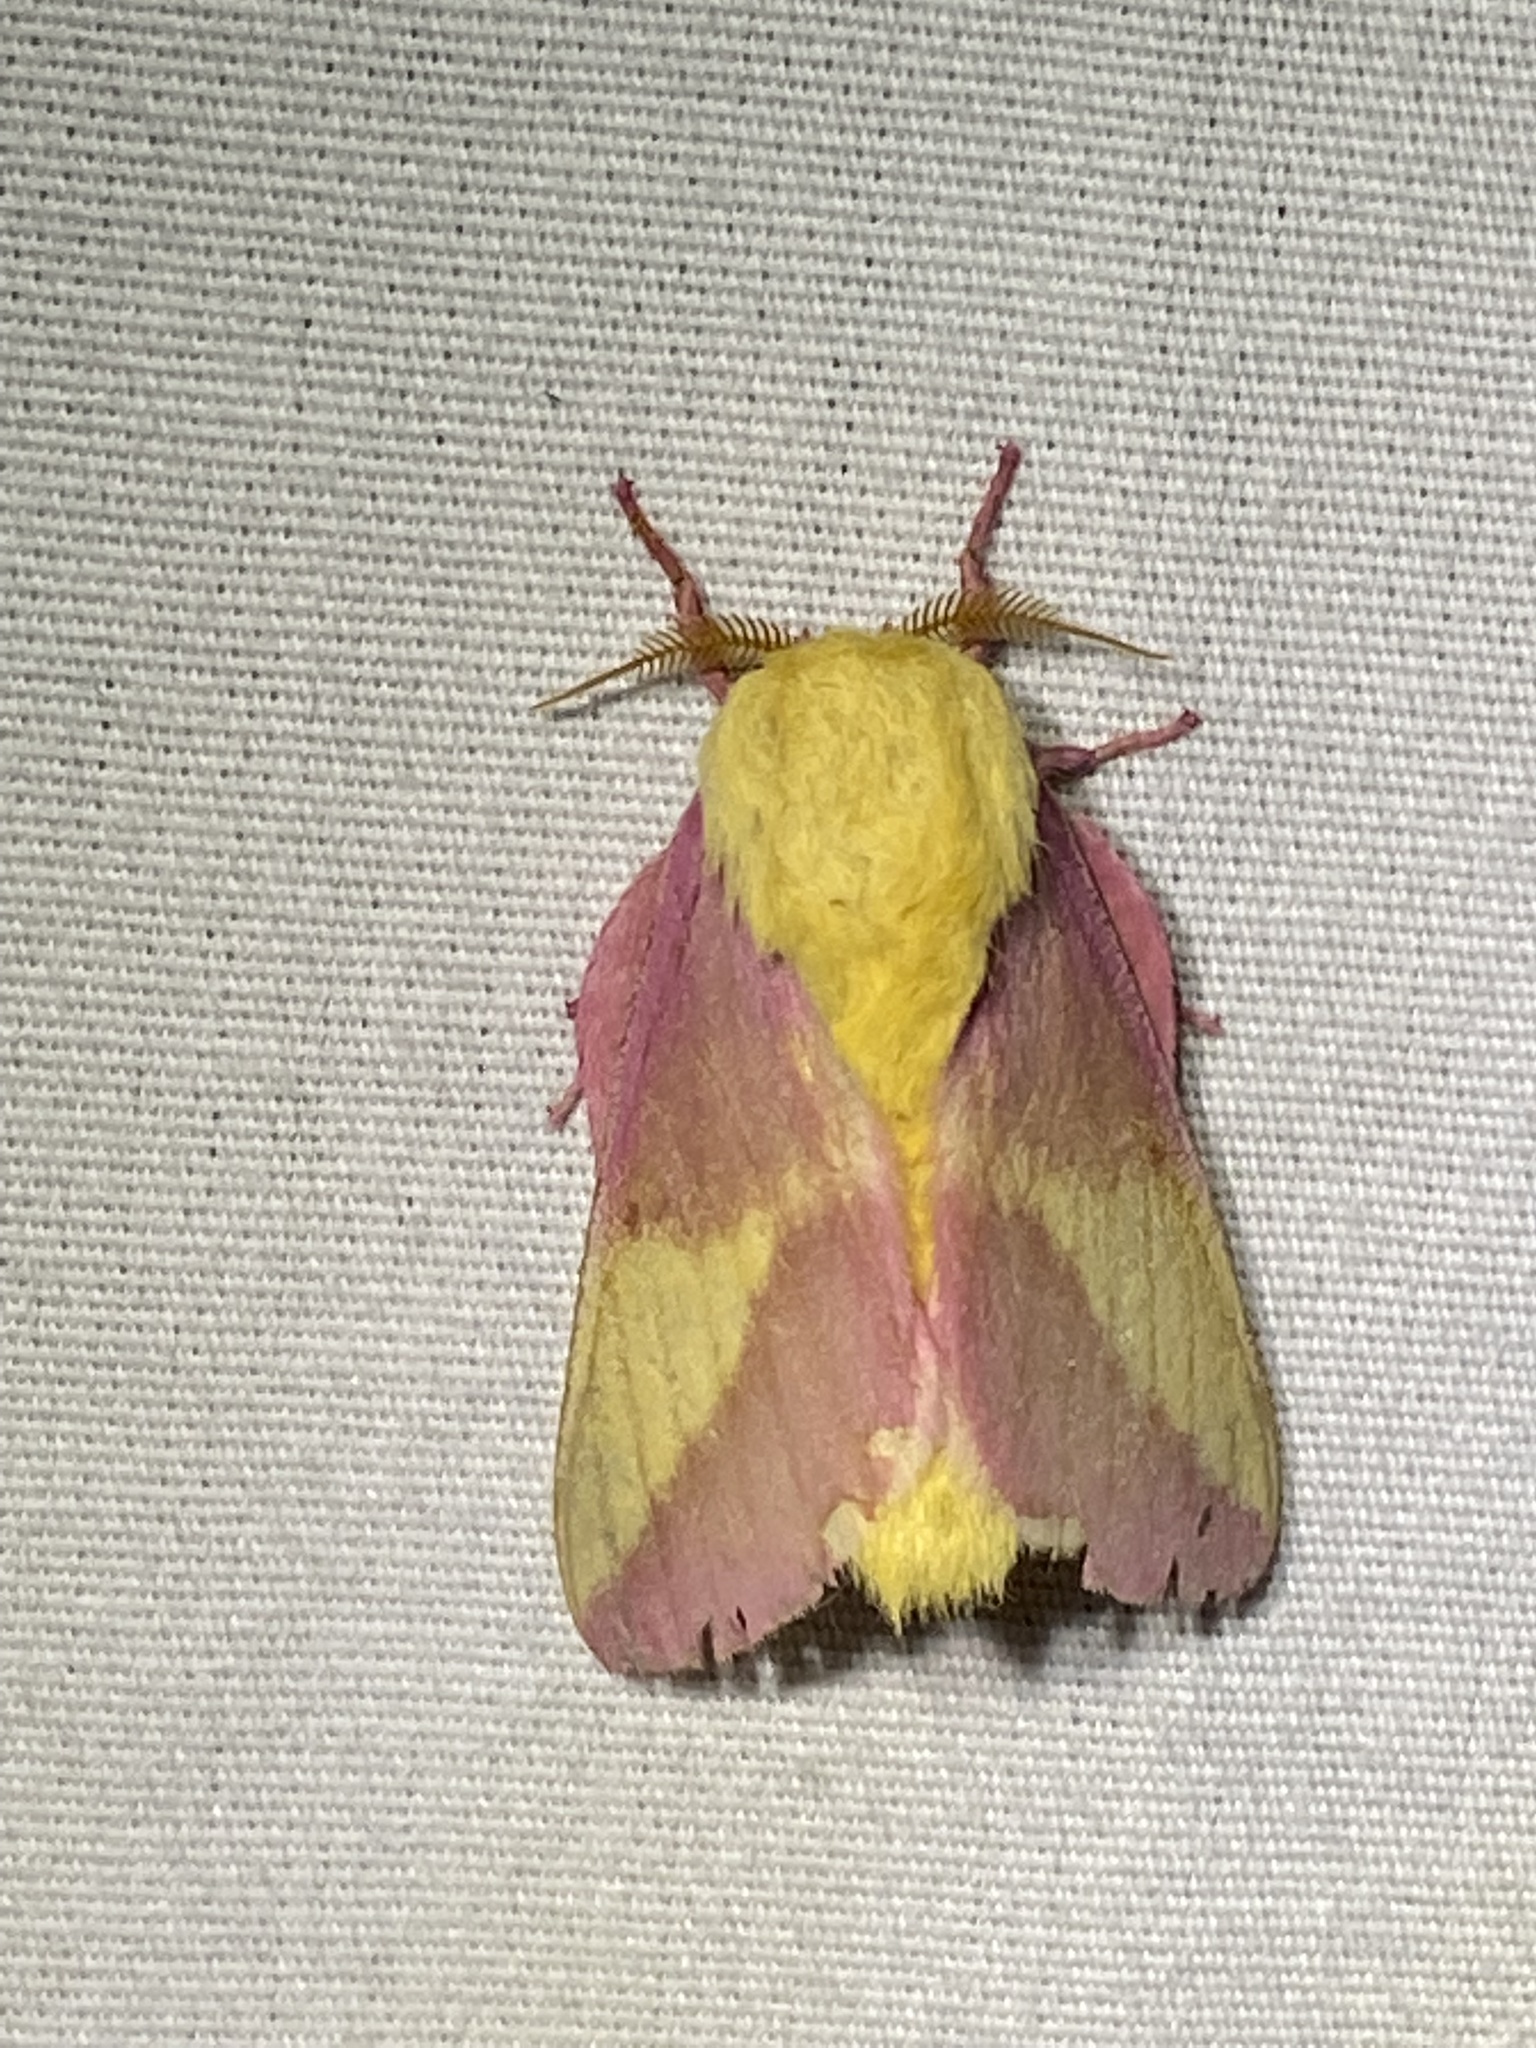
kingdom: Animalia
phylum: Arthropoda
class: Insecta
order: Lepidoptera
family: Saturniidae
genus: Dryocampa
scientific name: Dryocampa rubicunda
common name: Rosy maple moth
